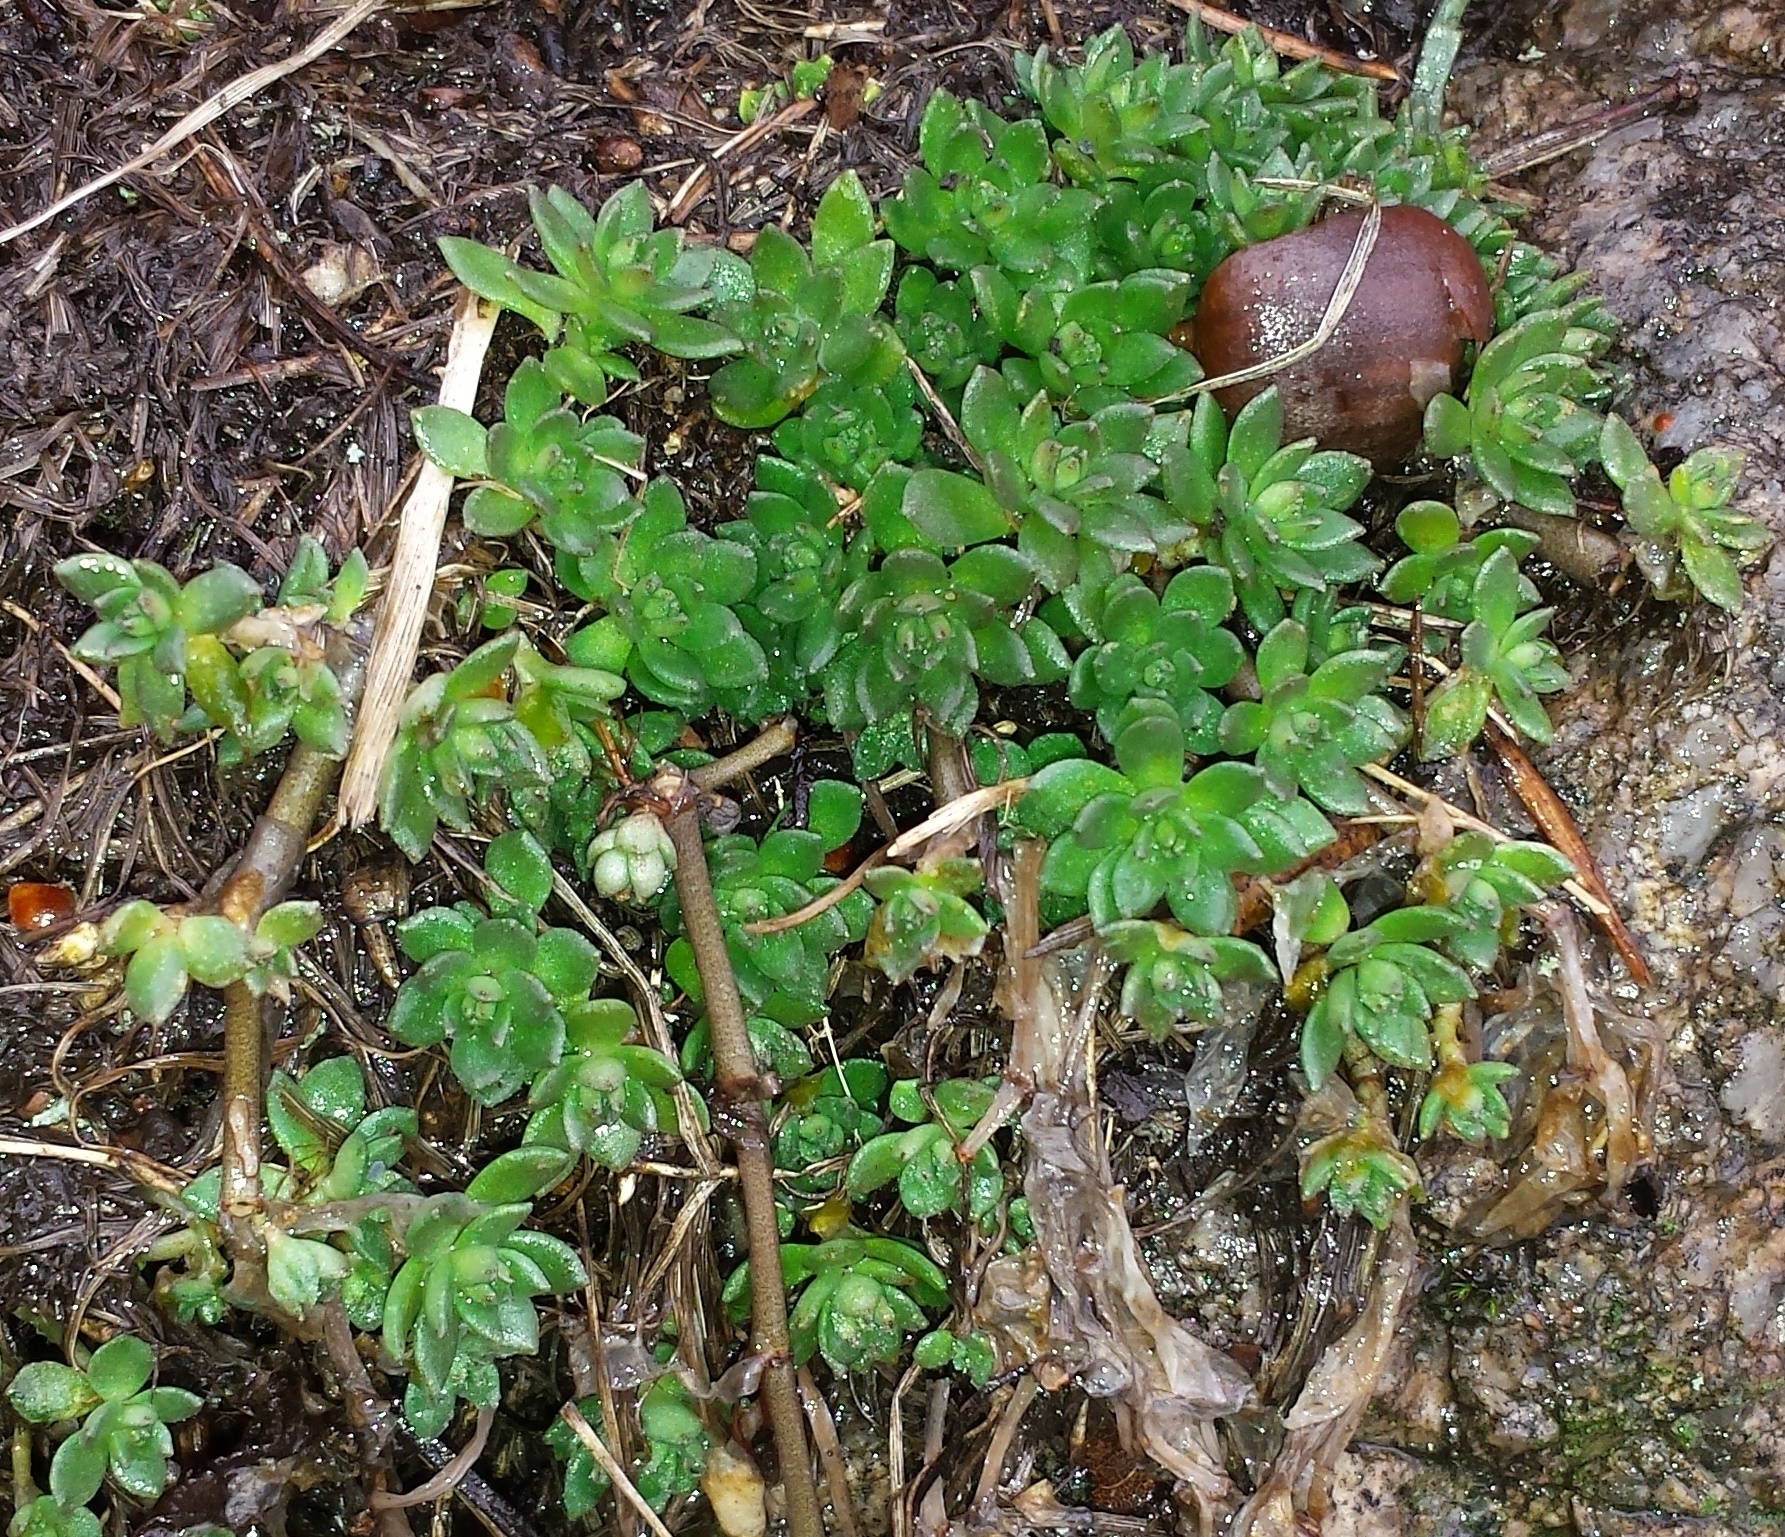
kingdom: Plantae
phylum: Tracheophyta
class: Magnoliopsida
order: Saxifragales
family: Crassulaceae
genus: Sedum
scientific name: Sedum sarmentosum
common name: Stringy stonecrop
